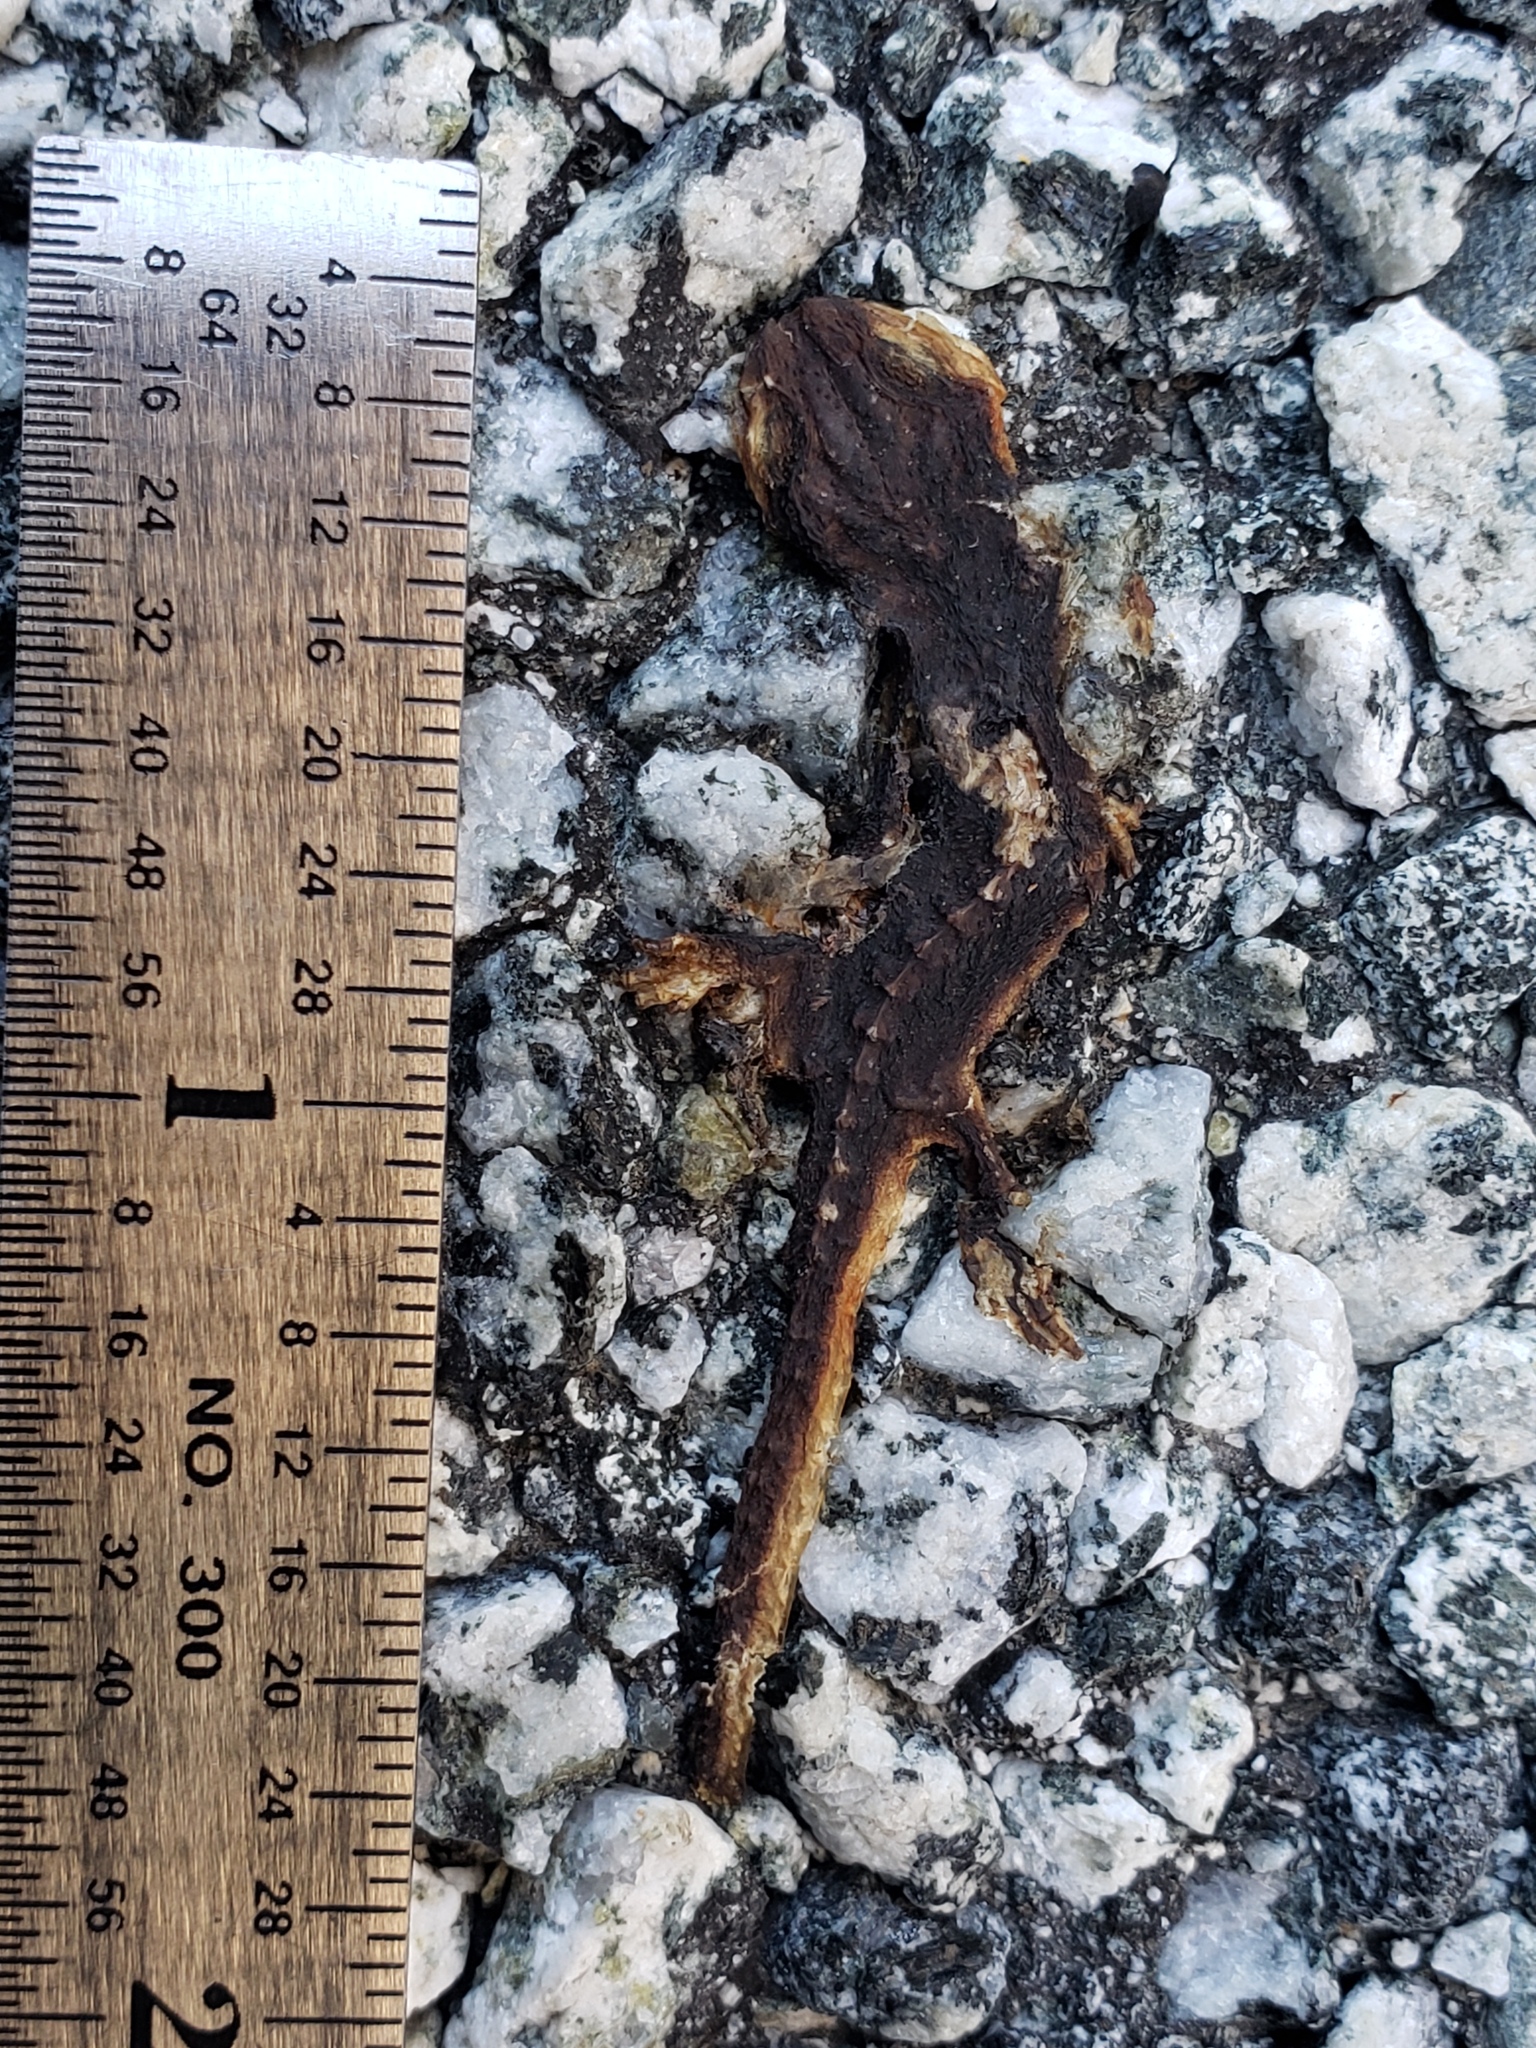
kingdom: Animalia
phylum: Chordata
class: Amphibia
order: Caudata
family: Salamandridae
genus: Taricha
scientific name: Taricha
